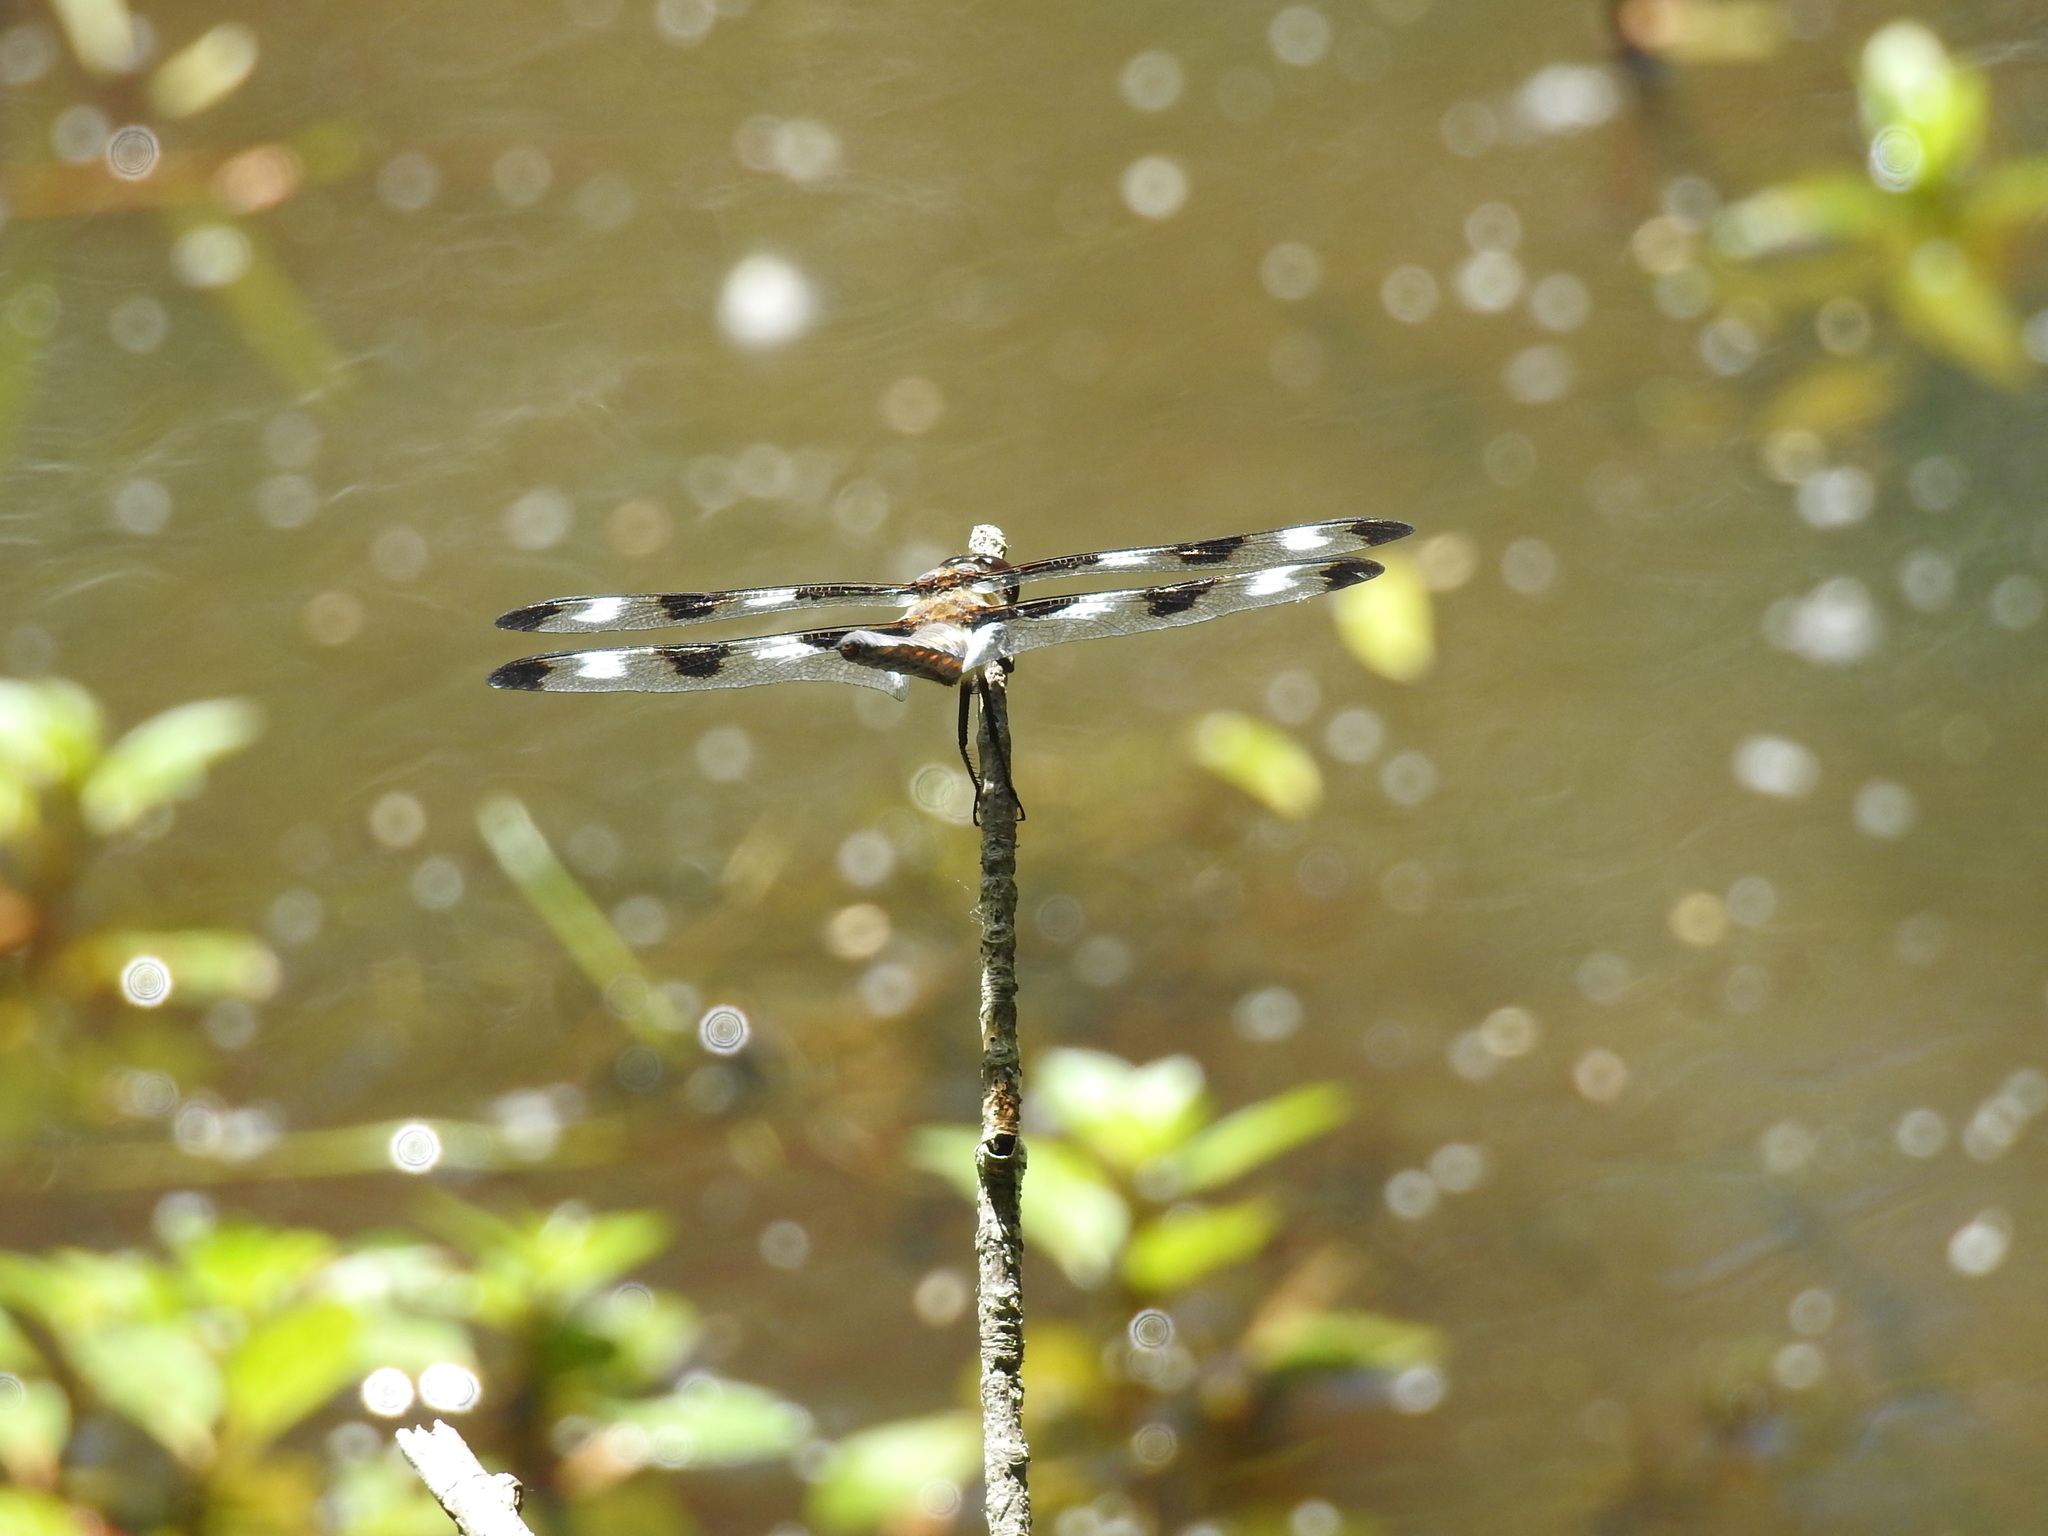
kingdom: Animalia
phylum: Arthropoda
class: Insecta
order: Odonata
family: Libellulidae
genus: Libellula
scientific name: Libellula pulchella
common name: Twelve-spotted skimmer
